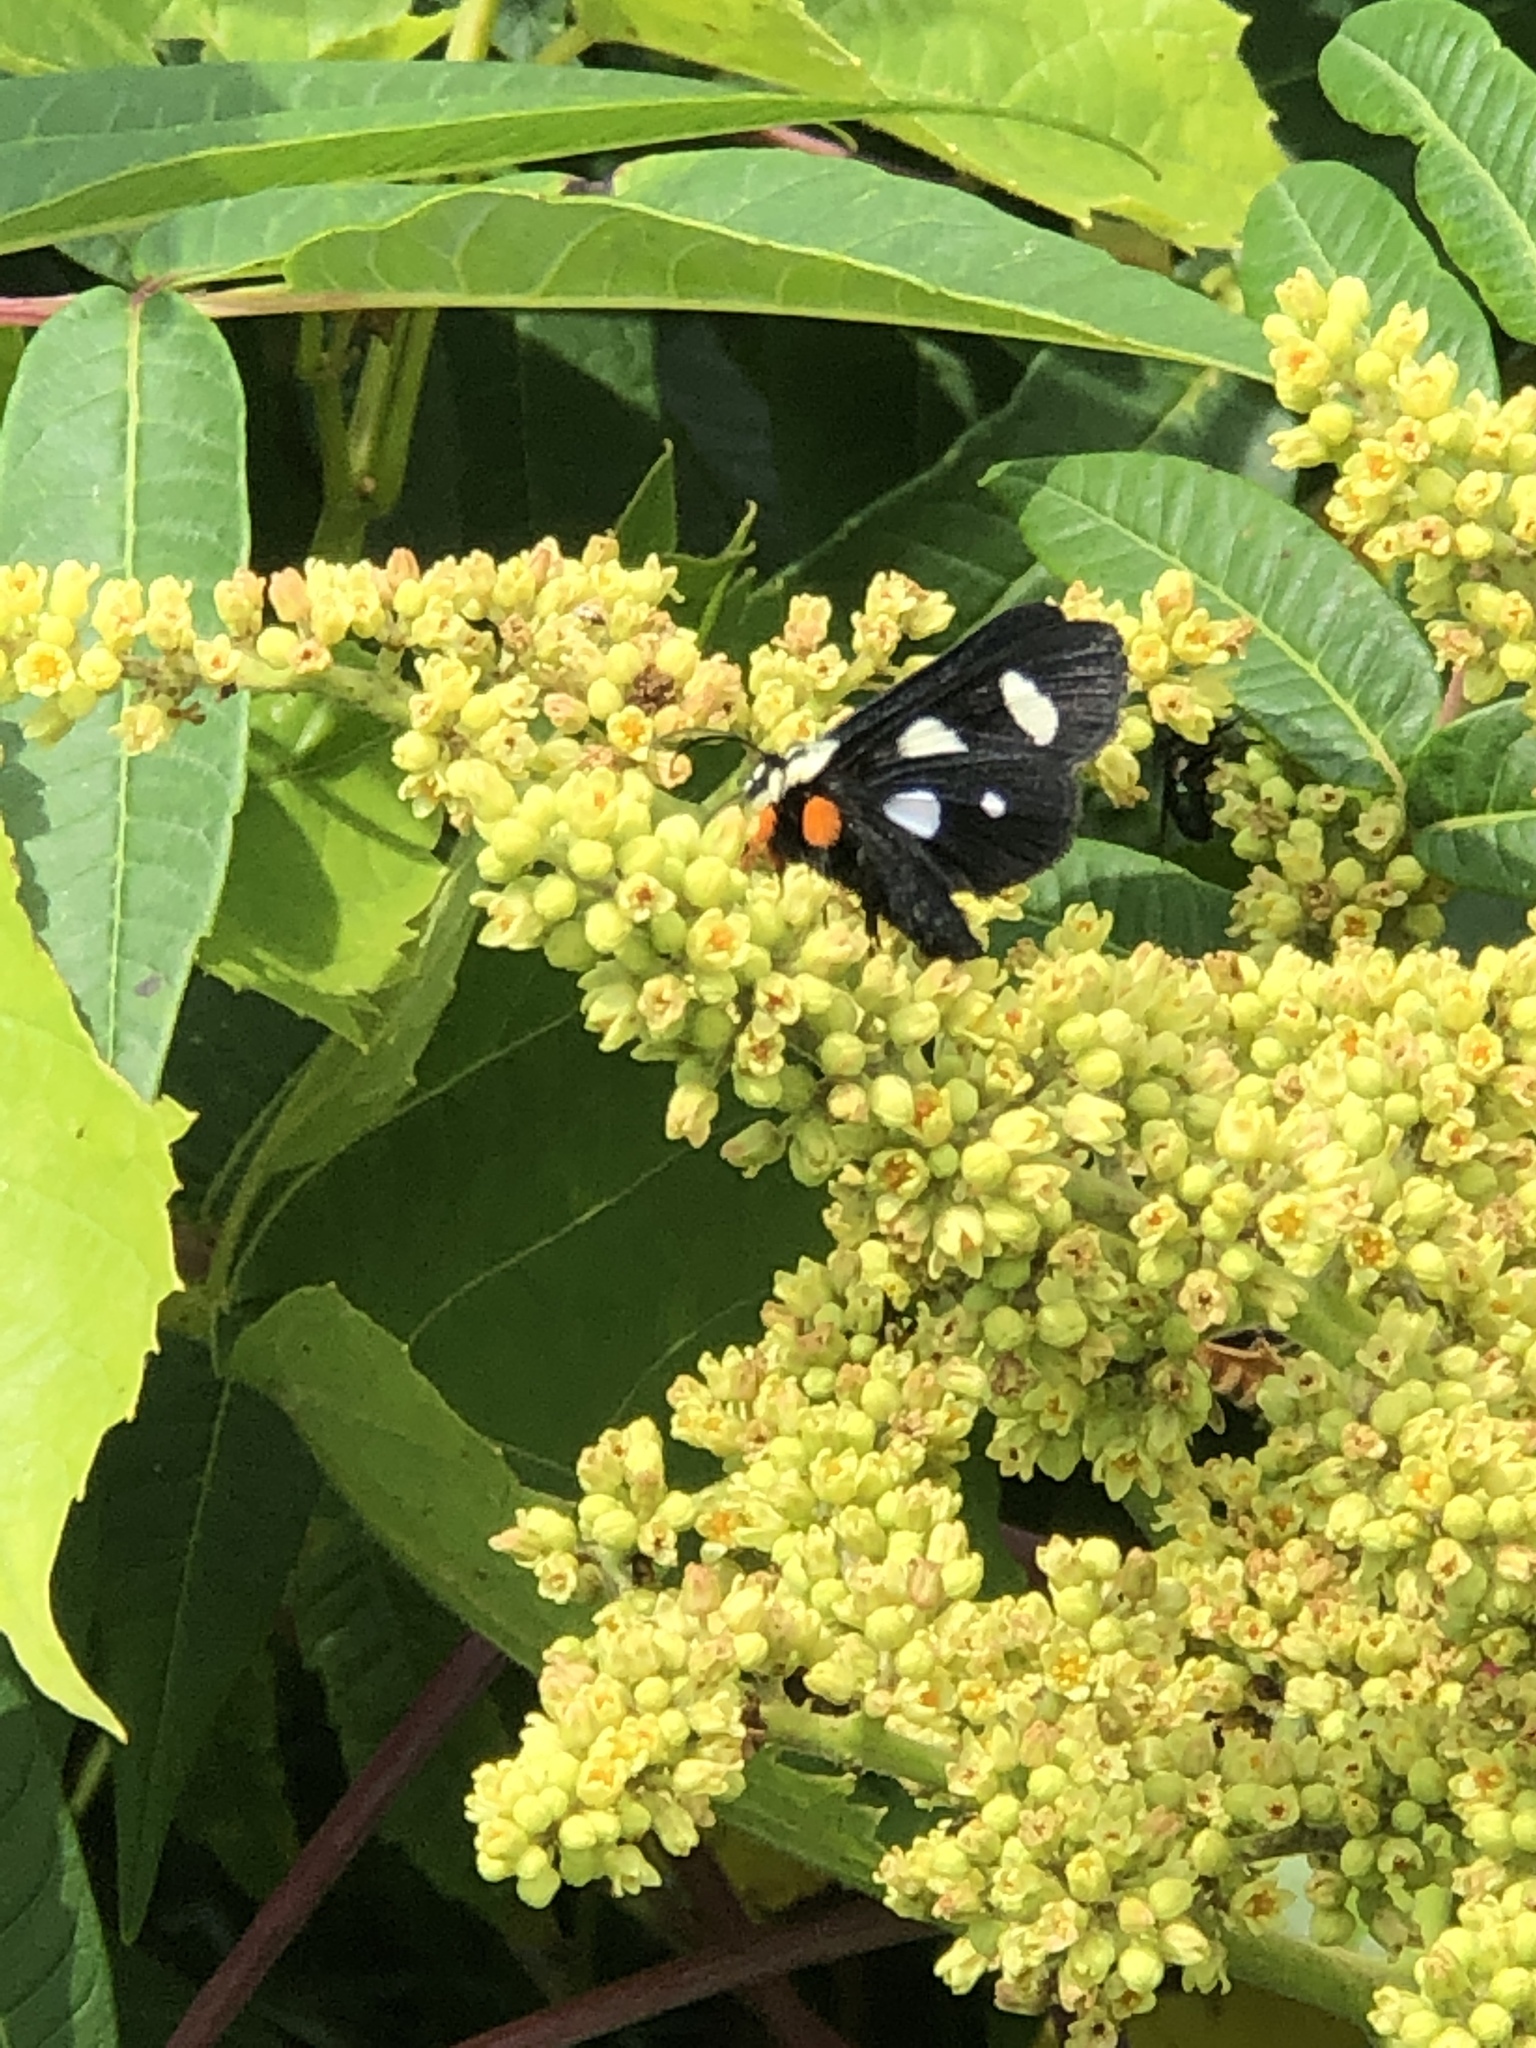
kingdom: Animalia
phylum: Arthropoda
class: Insecta
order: Lepidoptera
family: Noctuidae
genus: Alypia
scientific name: Alypia octomaculata
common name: Eight-spotted forester
